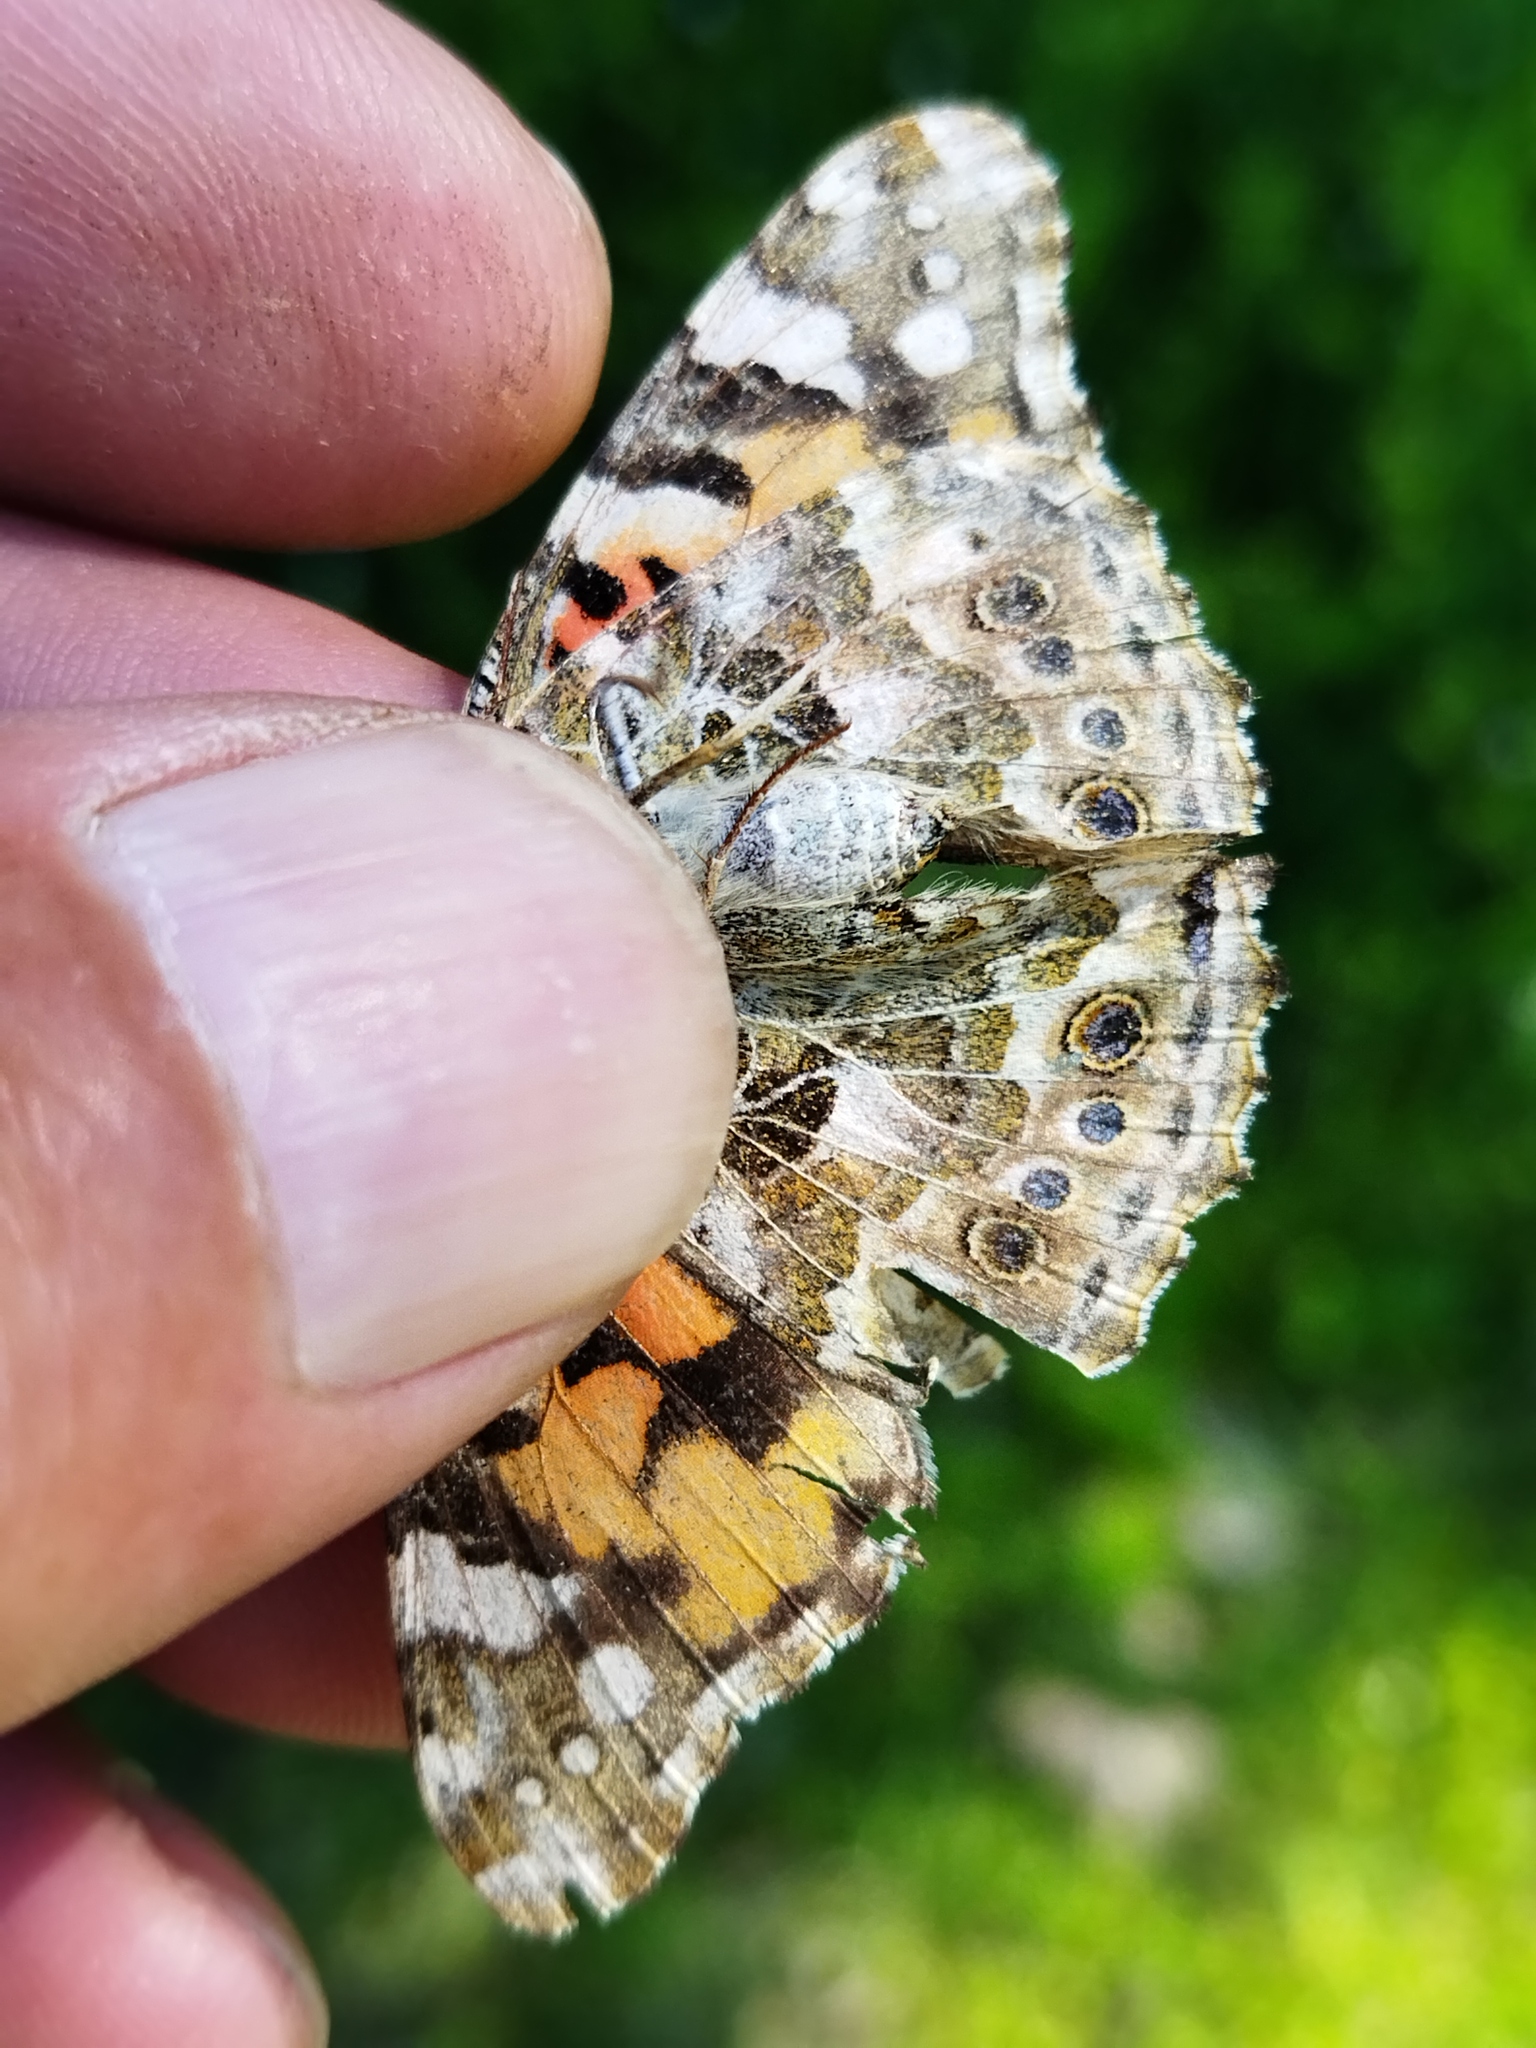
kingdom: Animalia
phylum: Arthropoda
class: Insecta
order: Lepidoptera
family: Nymphalidae
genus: Vanessa
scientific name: Vanessa cardui
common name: Painted lady
